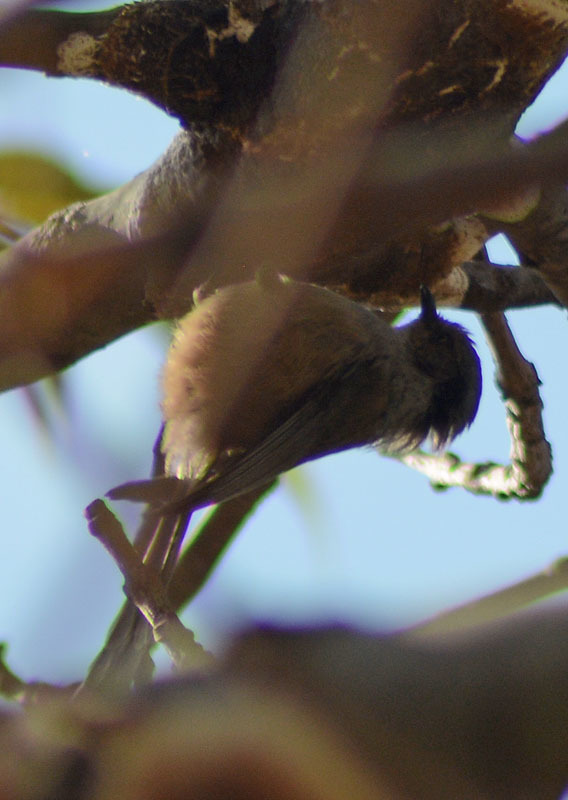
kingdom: Animalia
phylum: Chordata
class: Aves
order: Passeriformes
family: Aegithalidae
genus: Psaltriparus
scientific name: Psaltriparus minimus
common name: American bushtit
